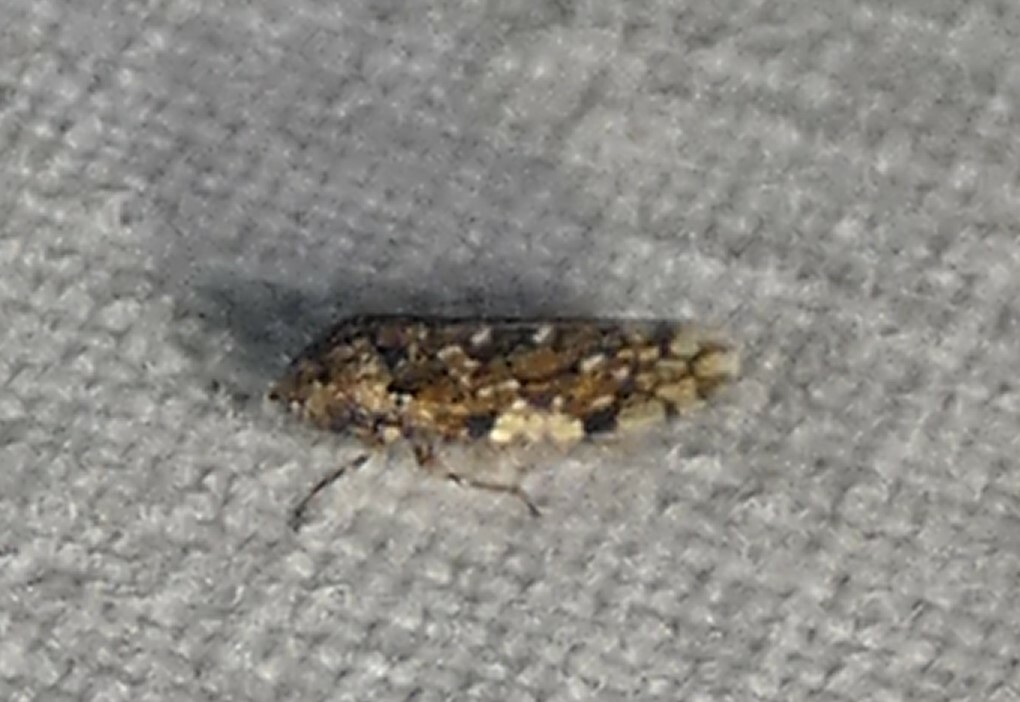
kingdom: Animalia
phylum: Arthropoda
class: Insecta
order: Hemiptera
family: Cicadellidae
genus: Xestocephalus
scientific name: Xestocephalus tessellatus
